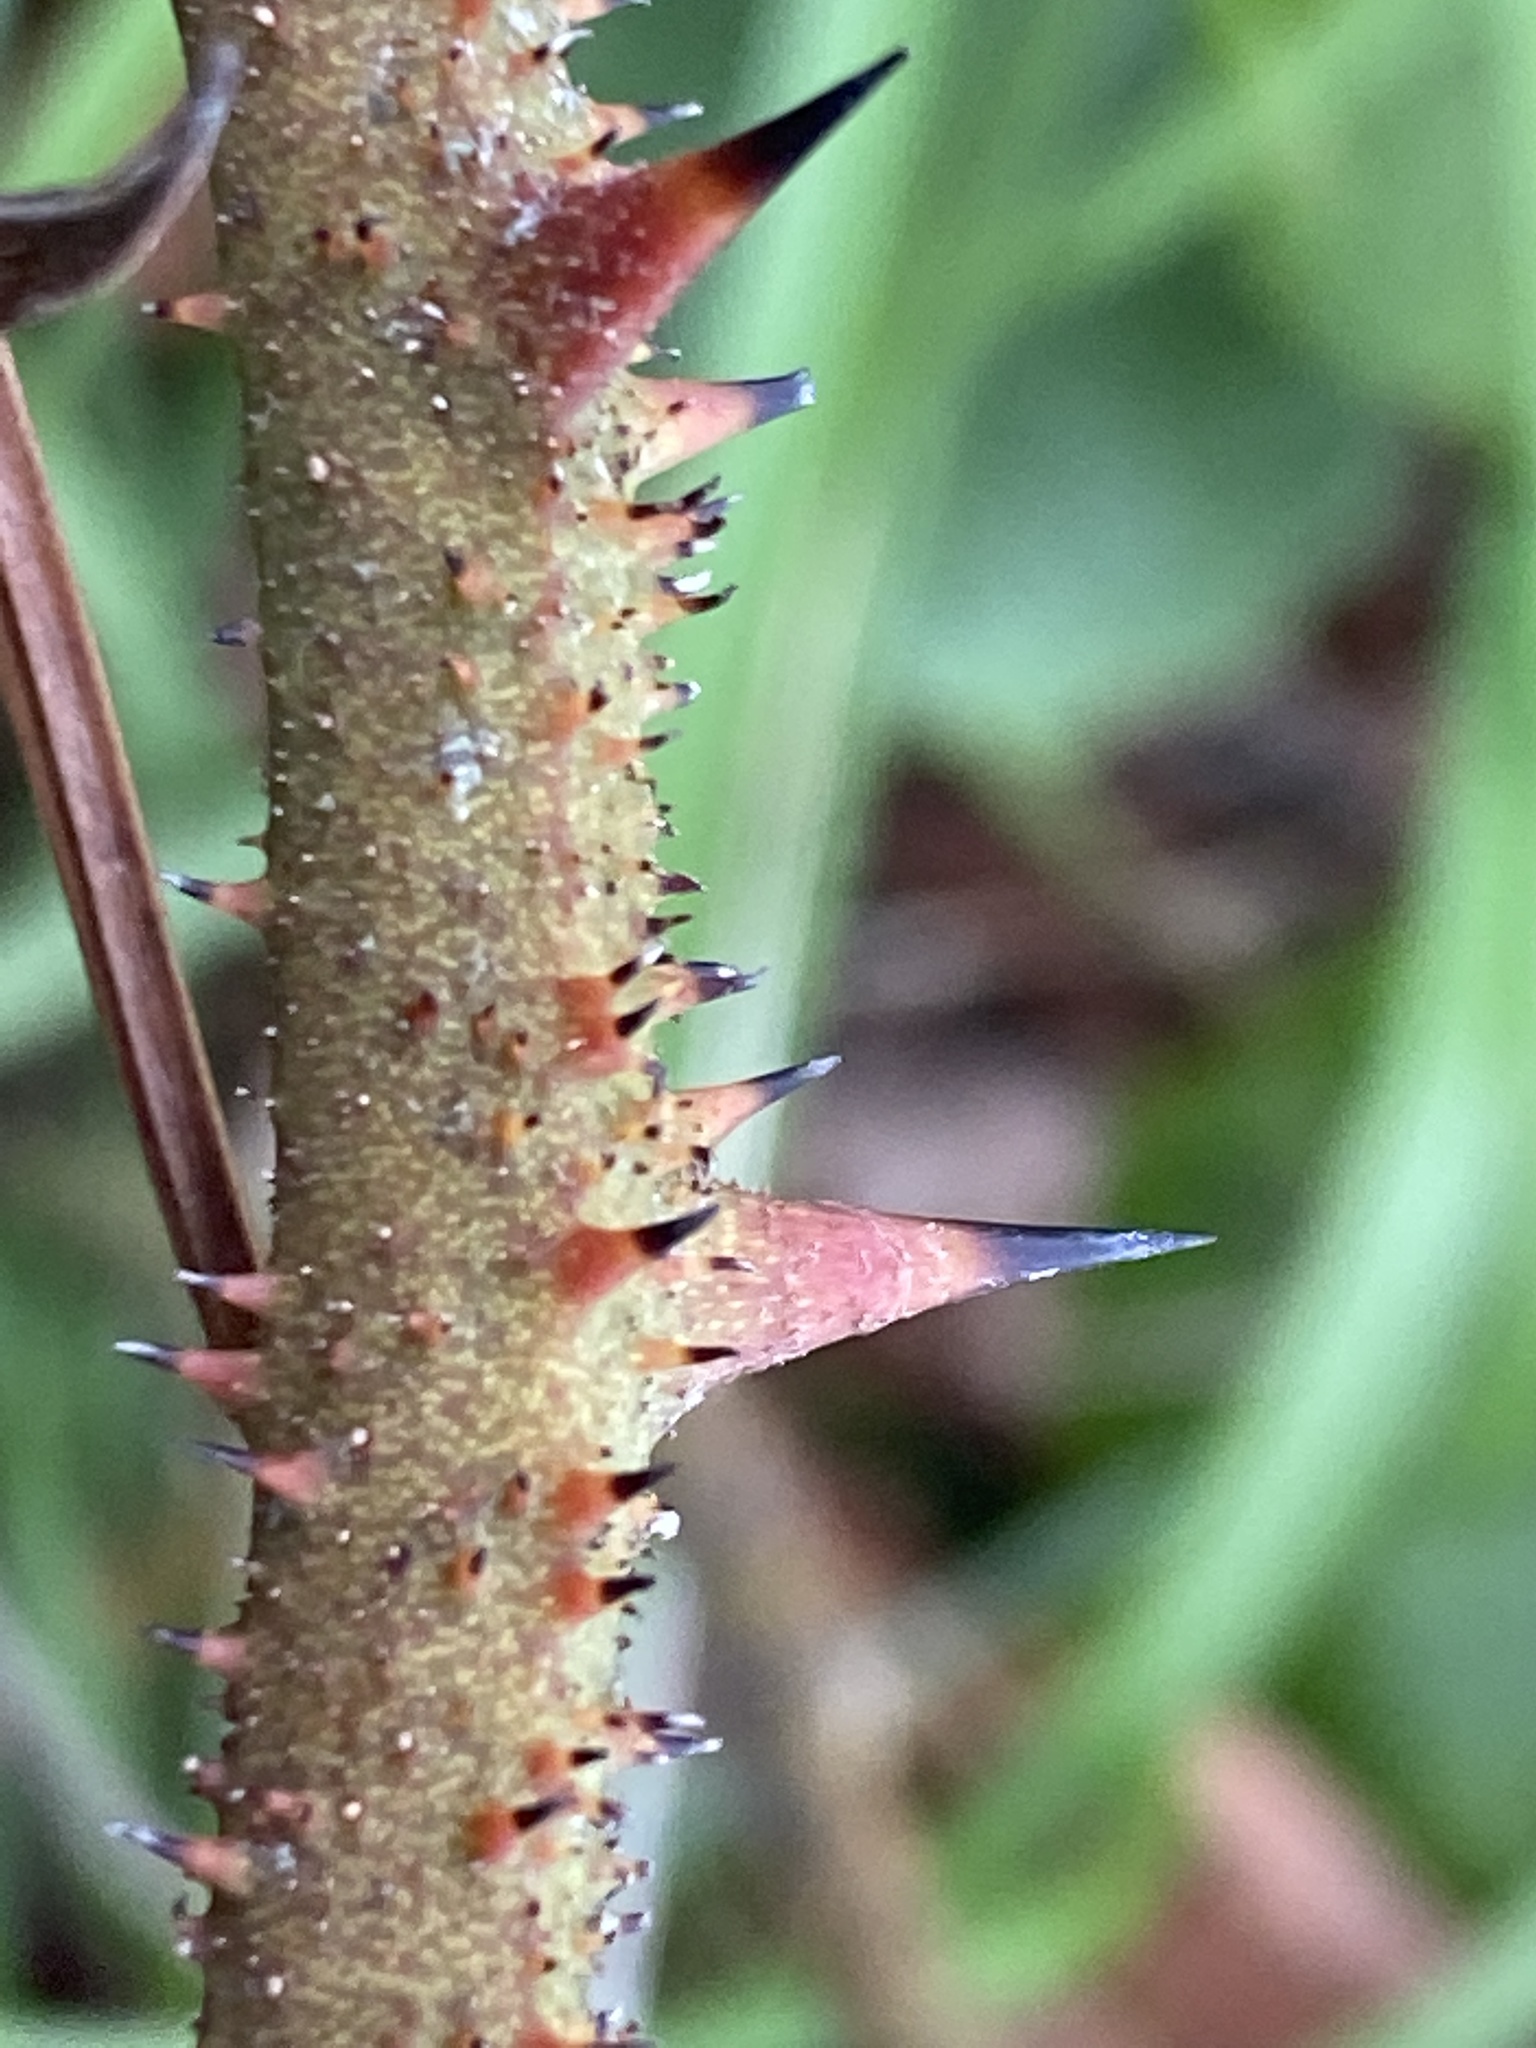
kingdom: Plantae
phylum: Tracheophyta
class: Liliopsida
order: Liliales
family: Smilacaceae
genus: Smilax
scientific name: Smilax bona-nox
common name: Catbrier
